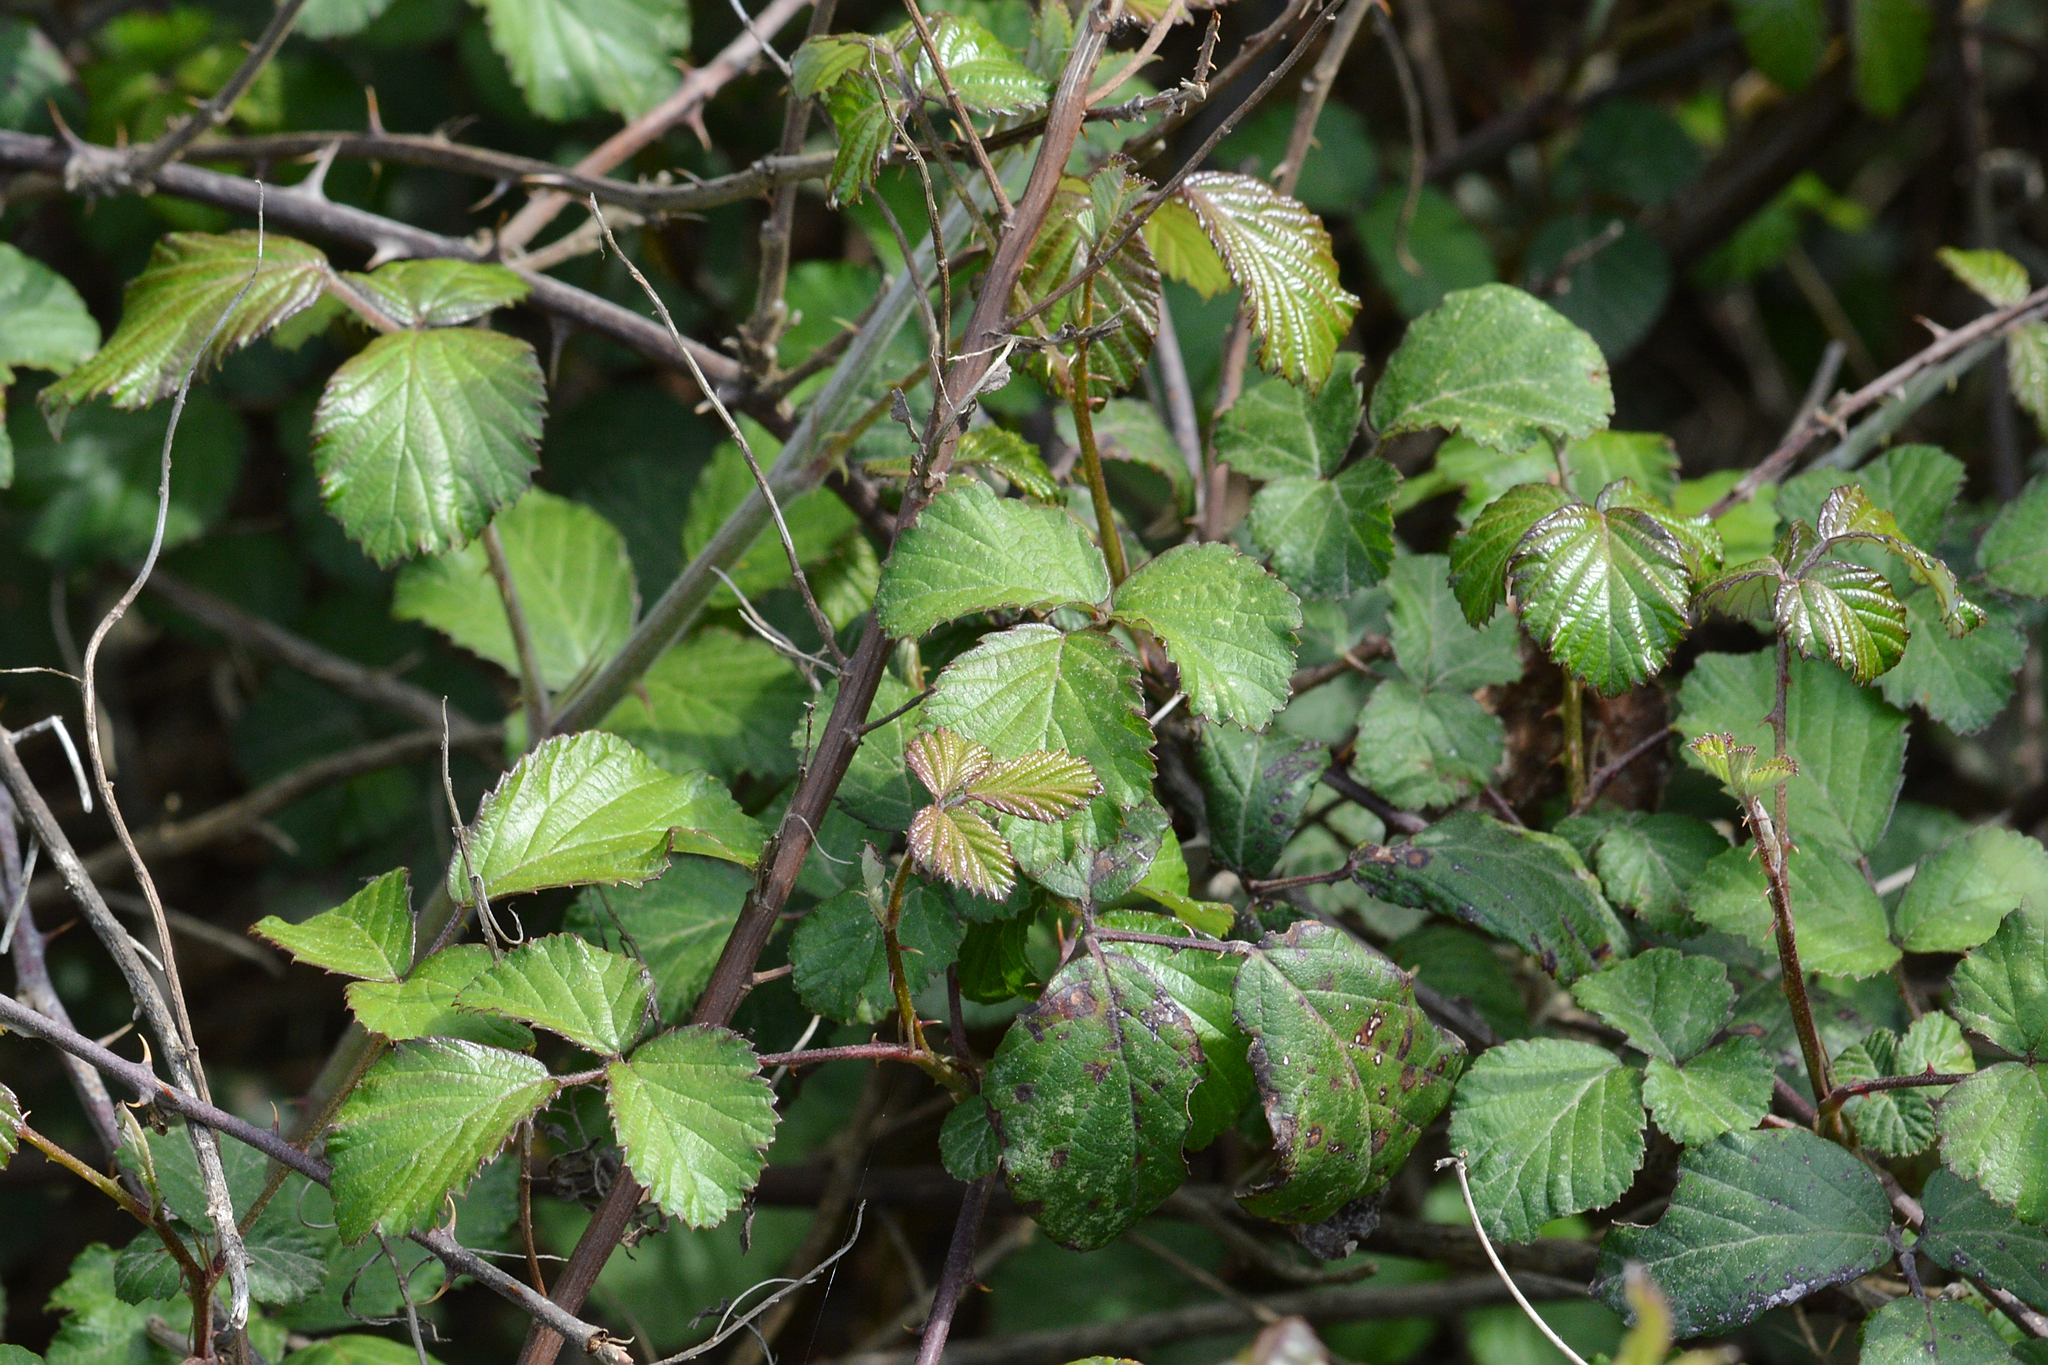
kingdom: Plantae
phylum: Tracheophyta
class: Magnoliopsida
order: Rosales
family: Rosaceae
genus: Rubus
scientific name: Rubus ulmifolius
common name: Elmleaf blackberry
